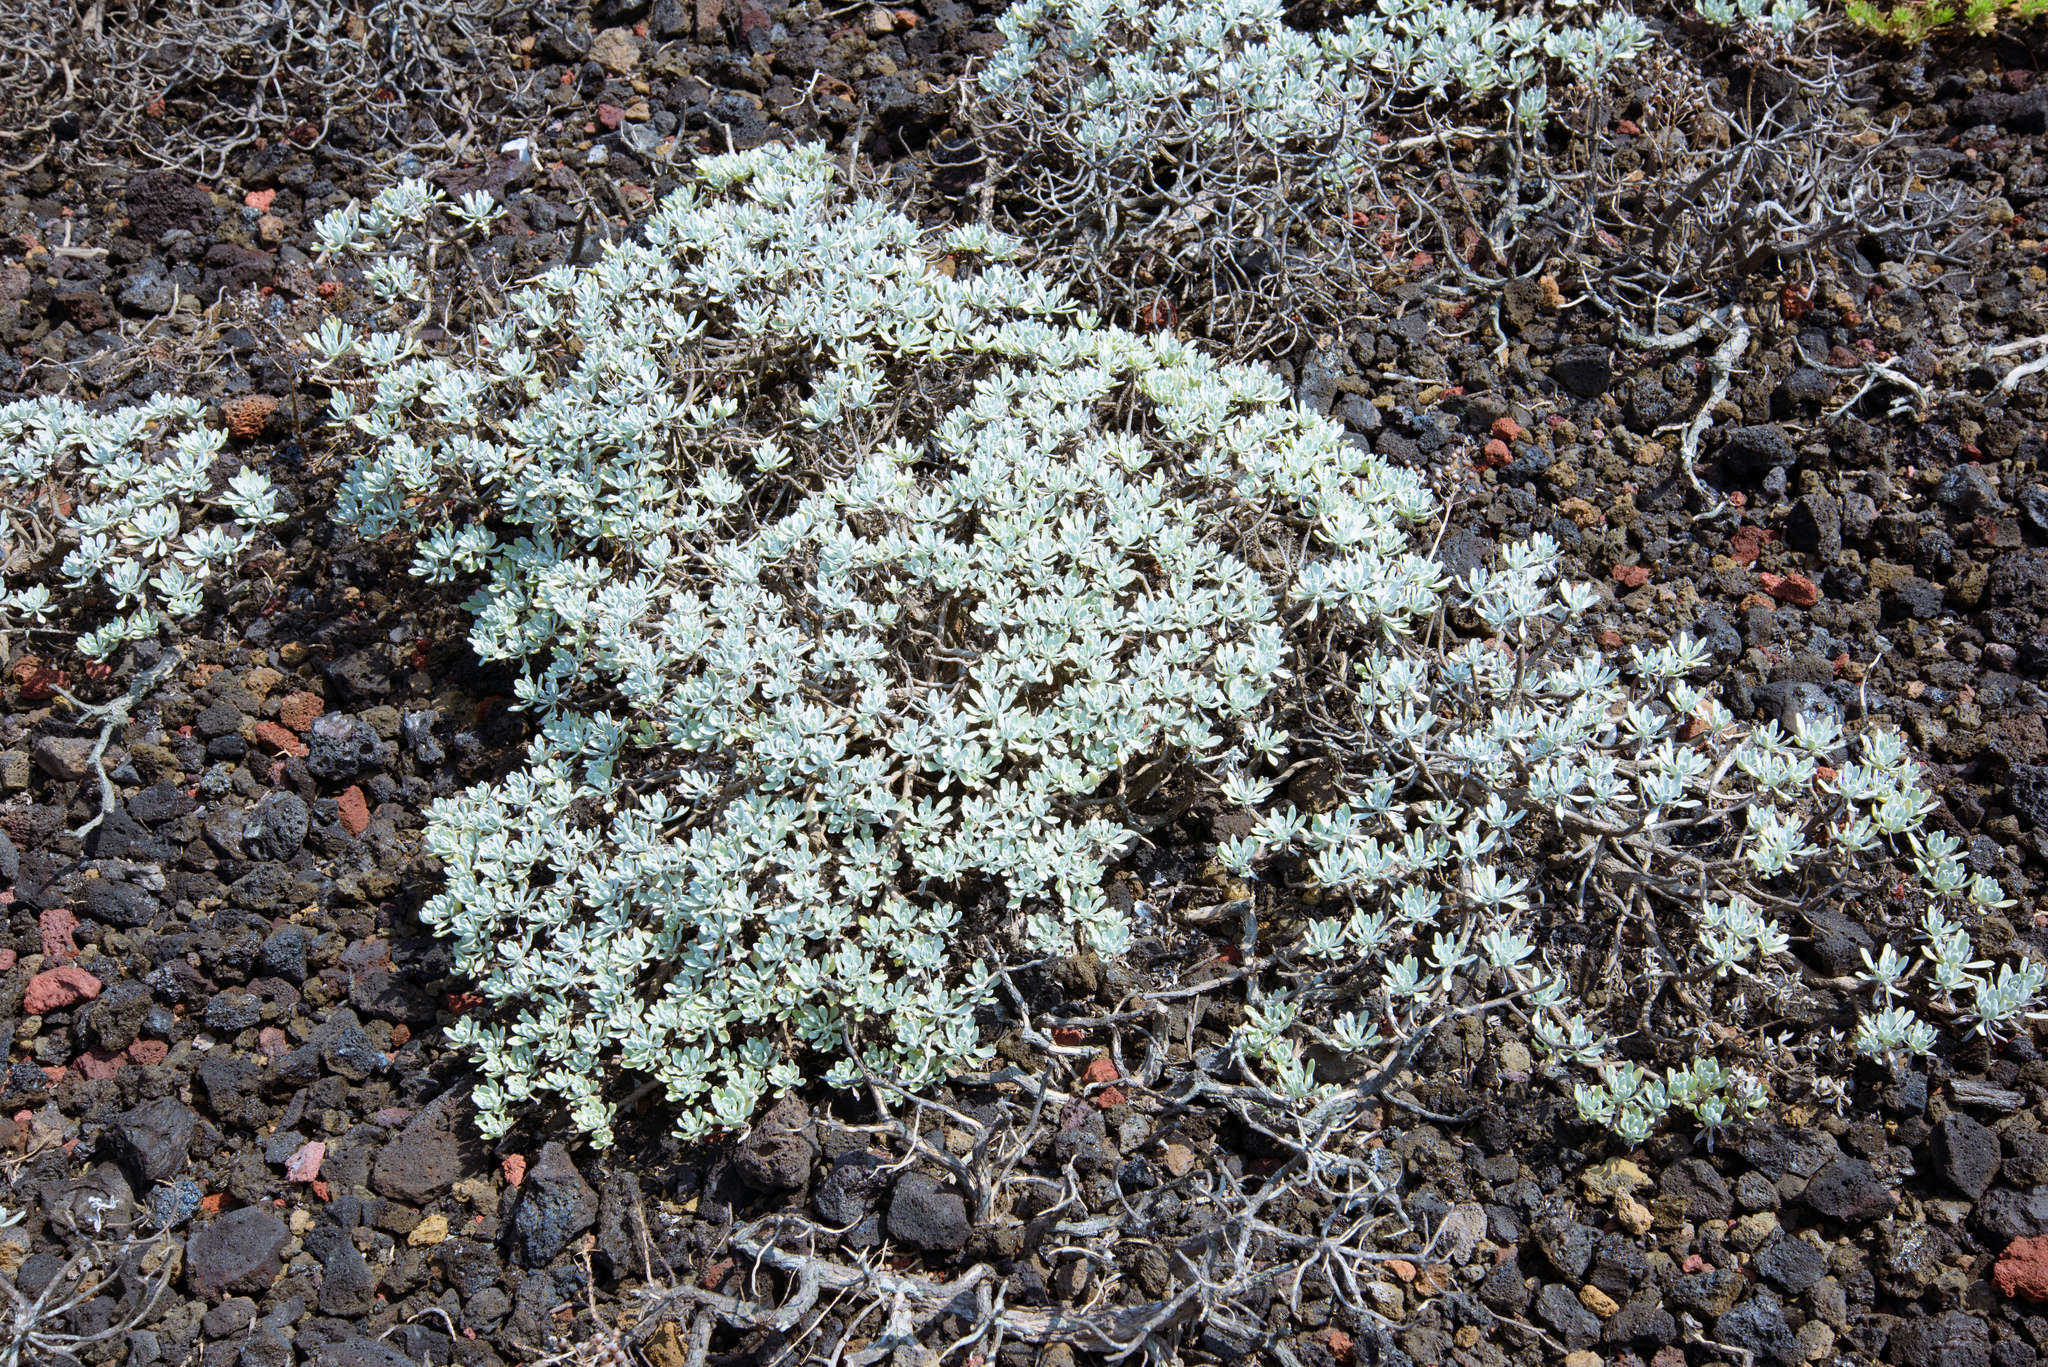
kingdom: Plantae
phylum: Tracheophyta
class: Magnoliopsida
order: Asterales
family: Asteraceae
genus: Crossostephium
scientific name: Crossostephium chinense
